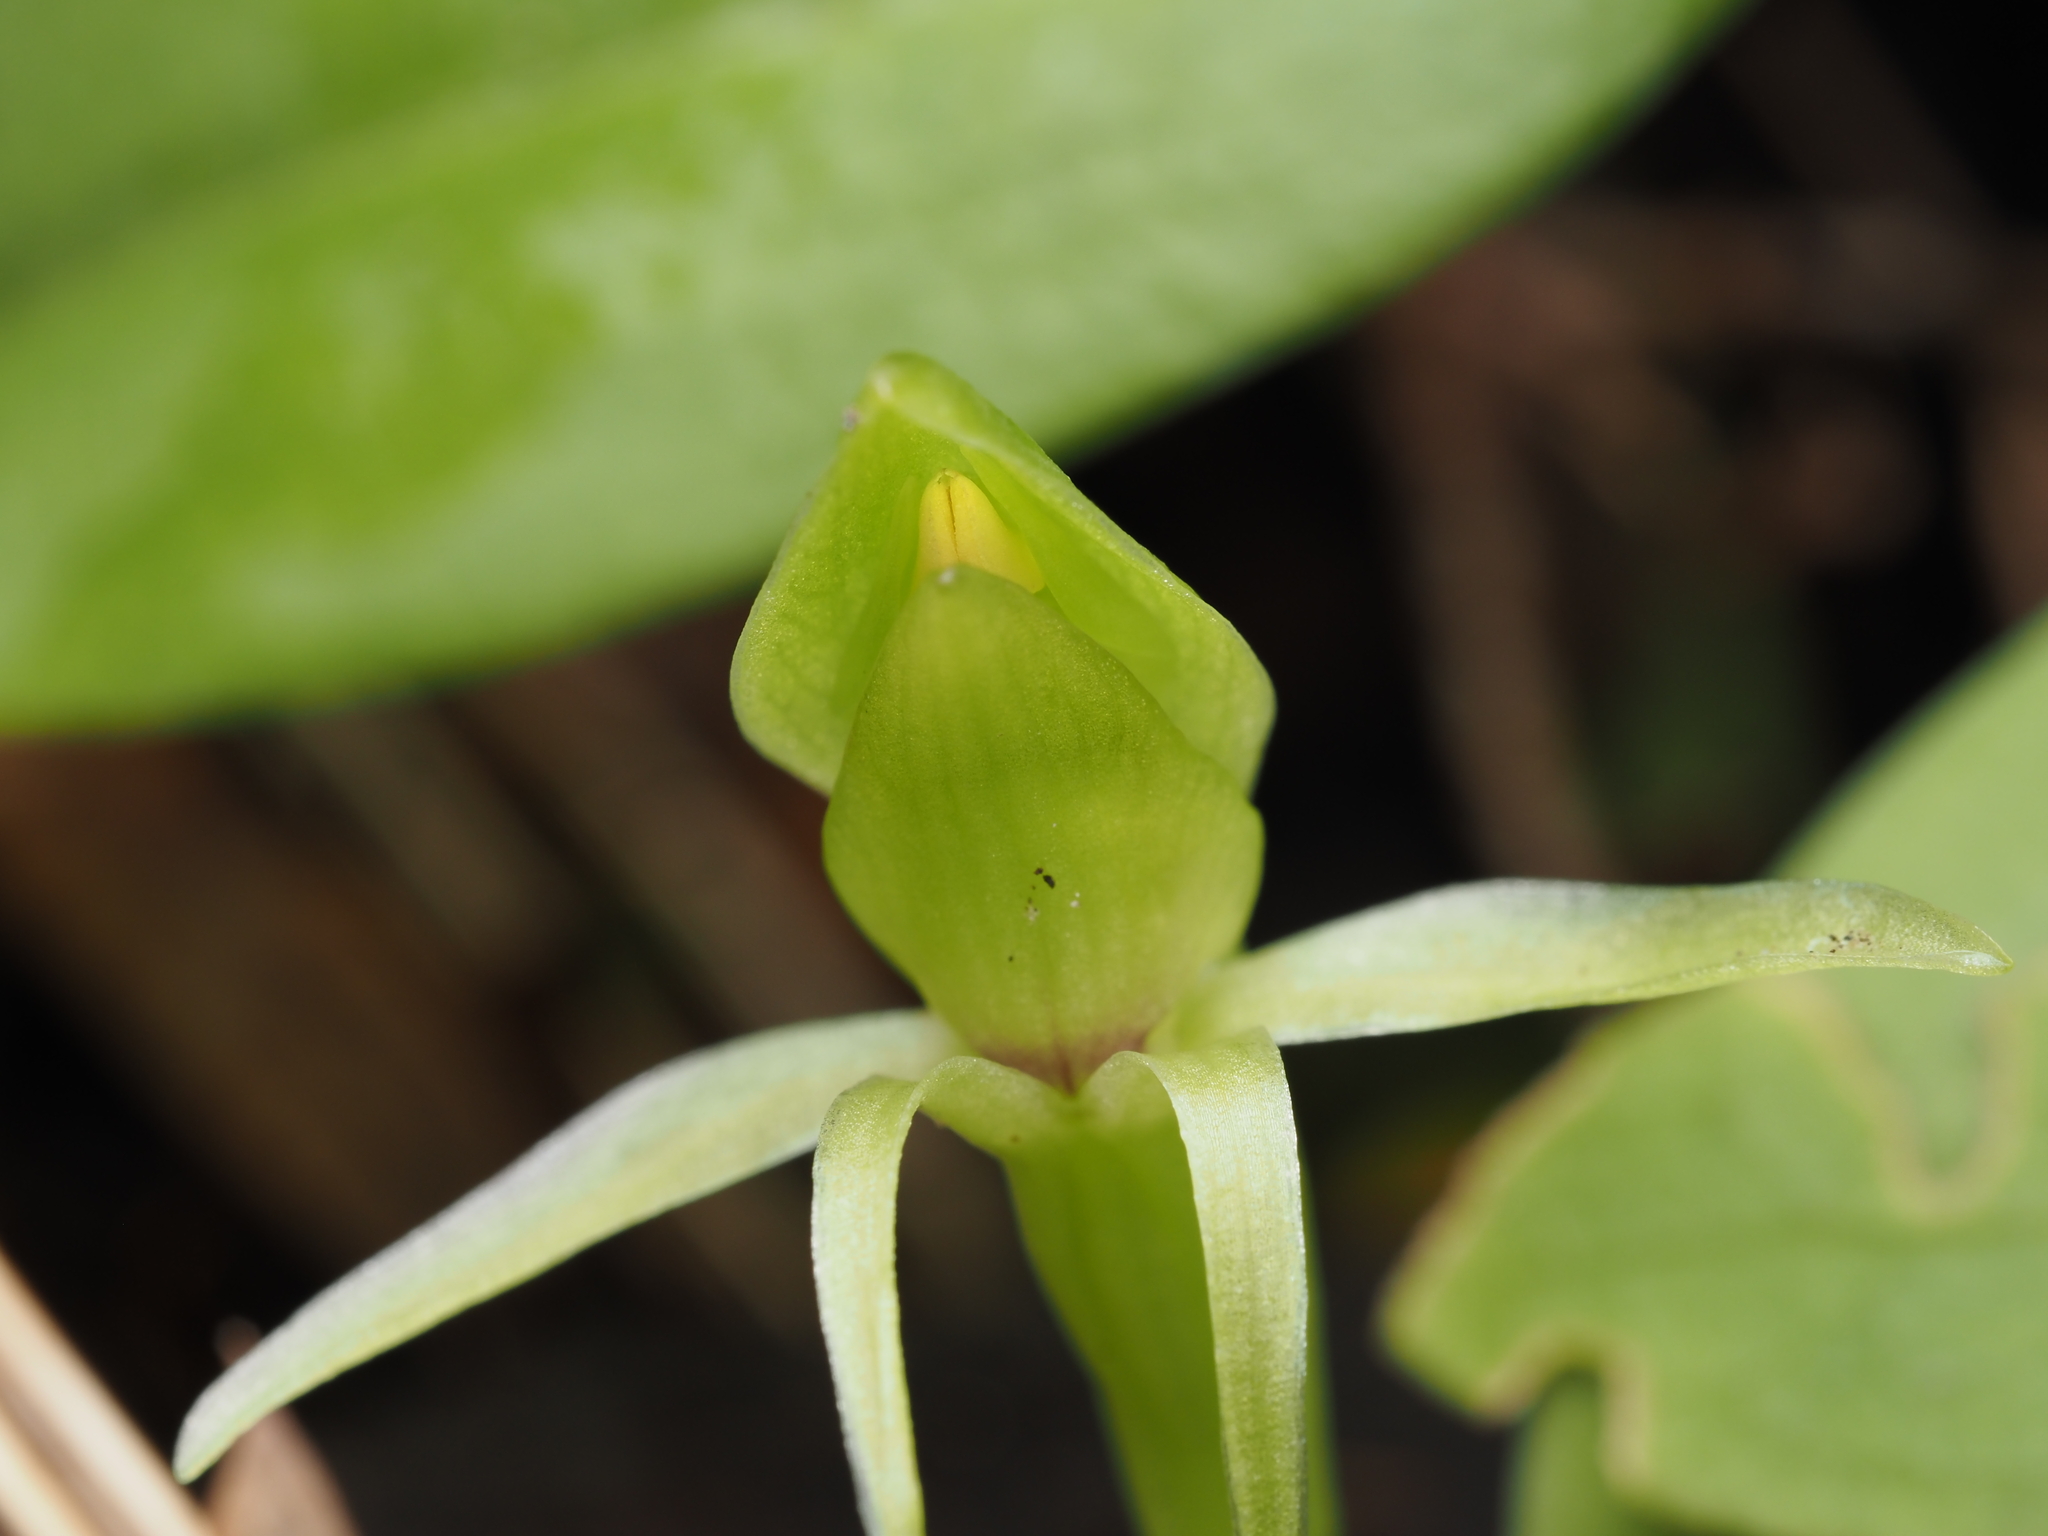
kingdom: Plantae
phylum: Tracheophyta
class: Liliopsida
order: Asparagales
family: Orchidaceae
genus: Chiloglottis
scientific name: Chiloglottis cornuta
